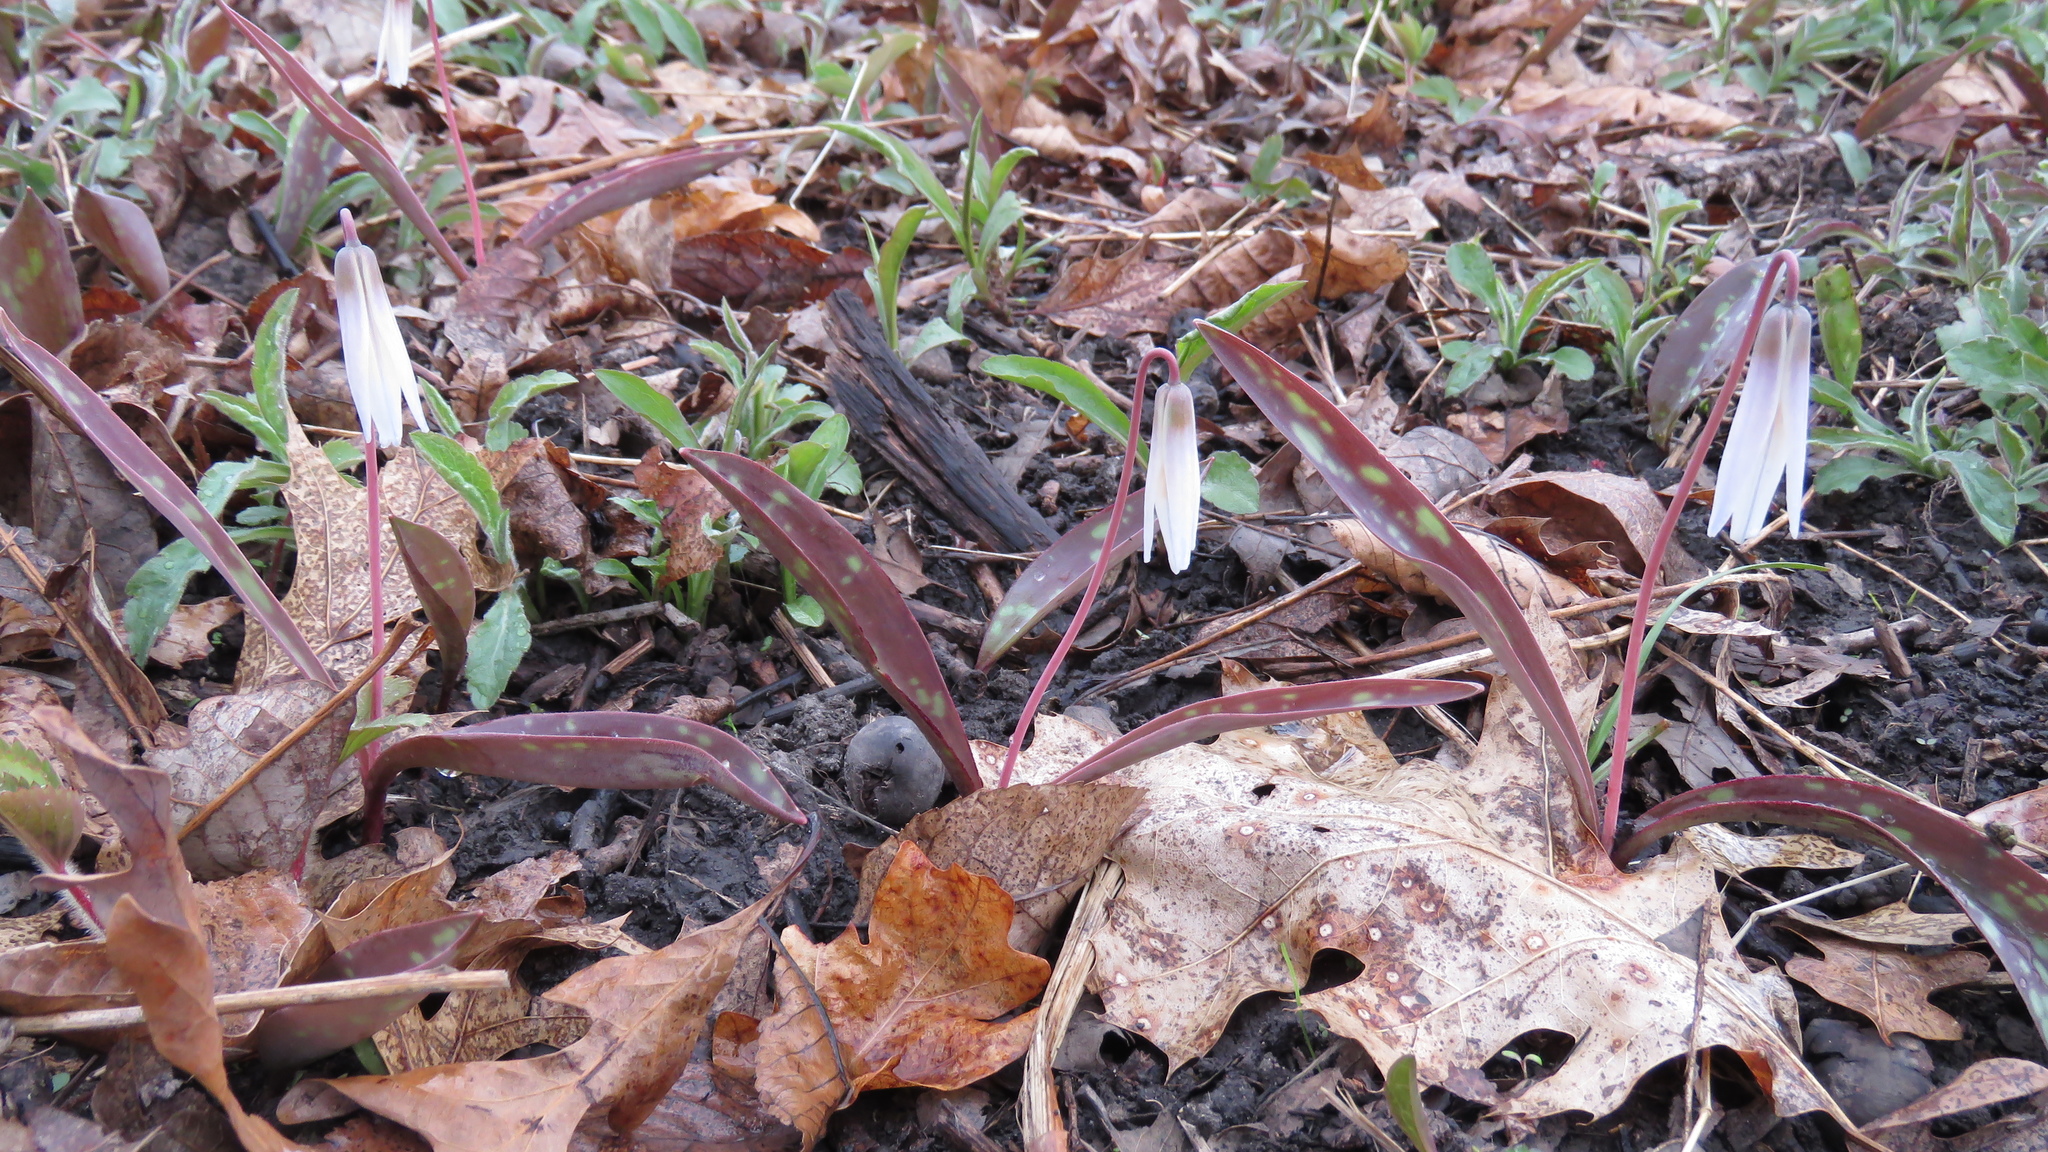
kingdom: Plantae
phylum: Tracheophyta
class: Liliopsida
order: Liliales
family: Liliaceae
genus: Erythronium
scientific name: Erythronium albidum
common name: White trout-lily
